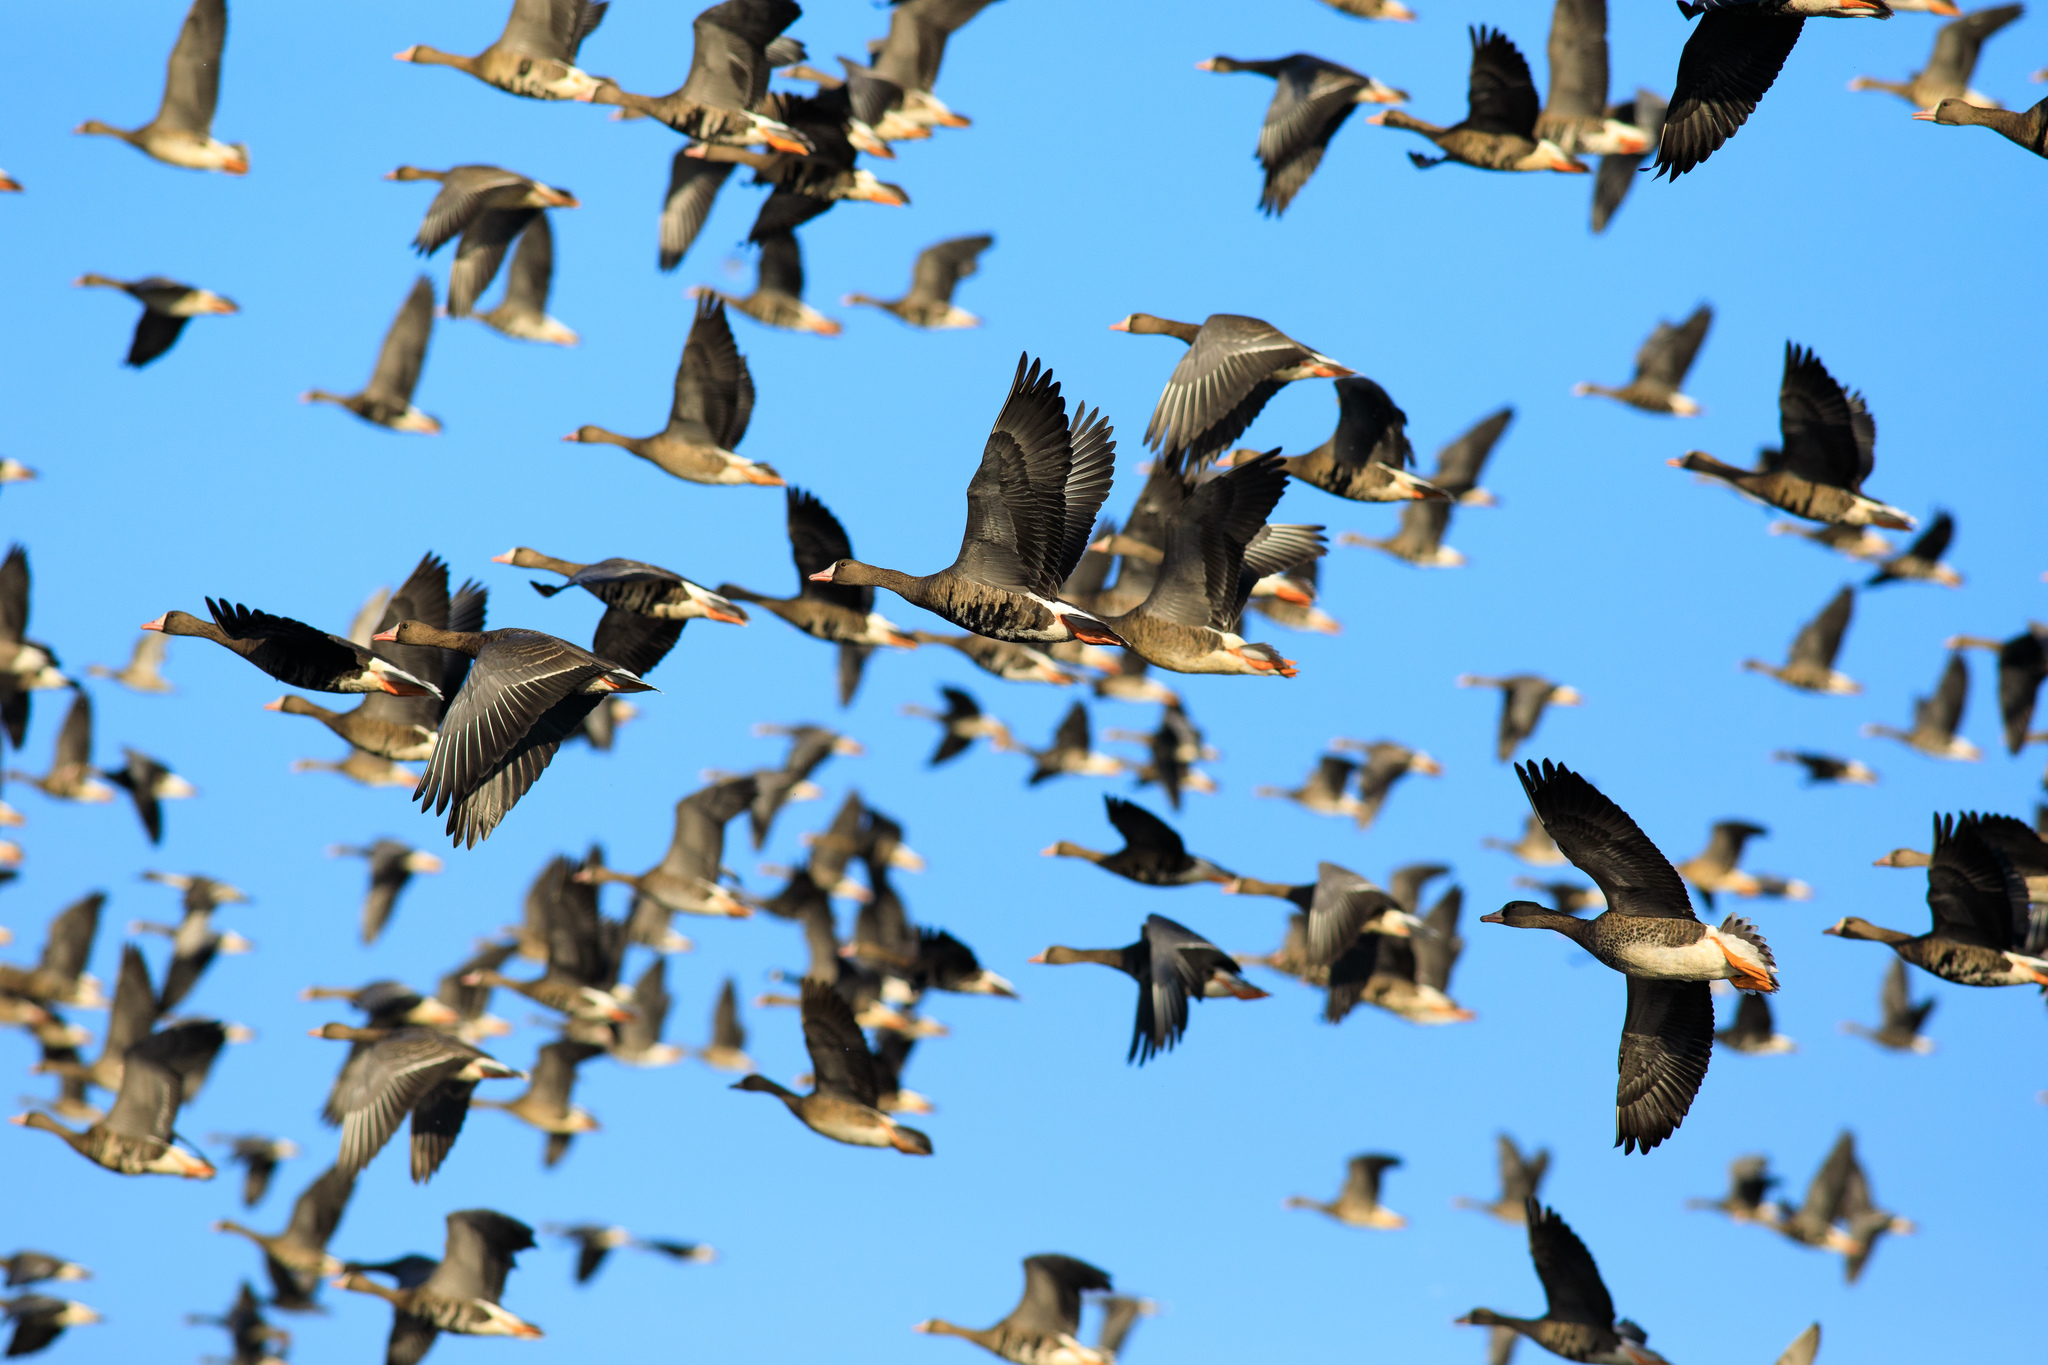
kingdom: Animalia
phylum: Chordata
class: Aves
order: Anseriformes
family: Anatidae
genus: Anser
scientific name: Anser albifrons
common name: Greater white-fronted goose
